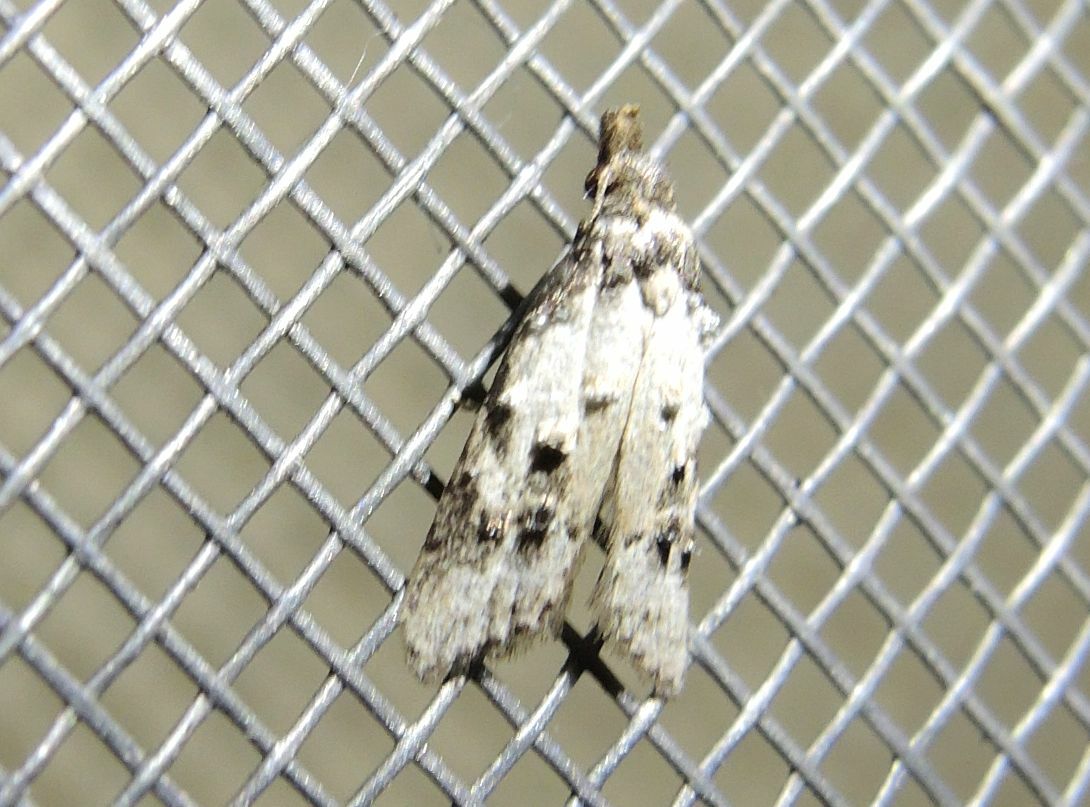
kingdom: Animalia
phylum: Arthropoda
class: Insecta
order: Lepidoptera
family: Carposinidae
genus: Carposina
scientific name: Carposina scirrhosella
